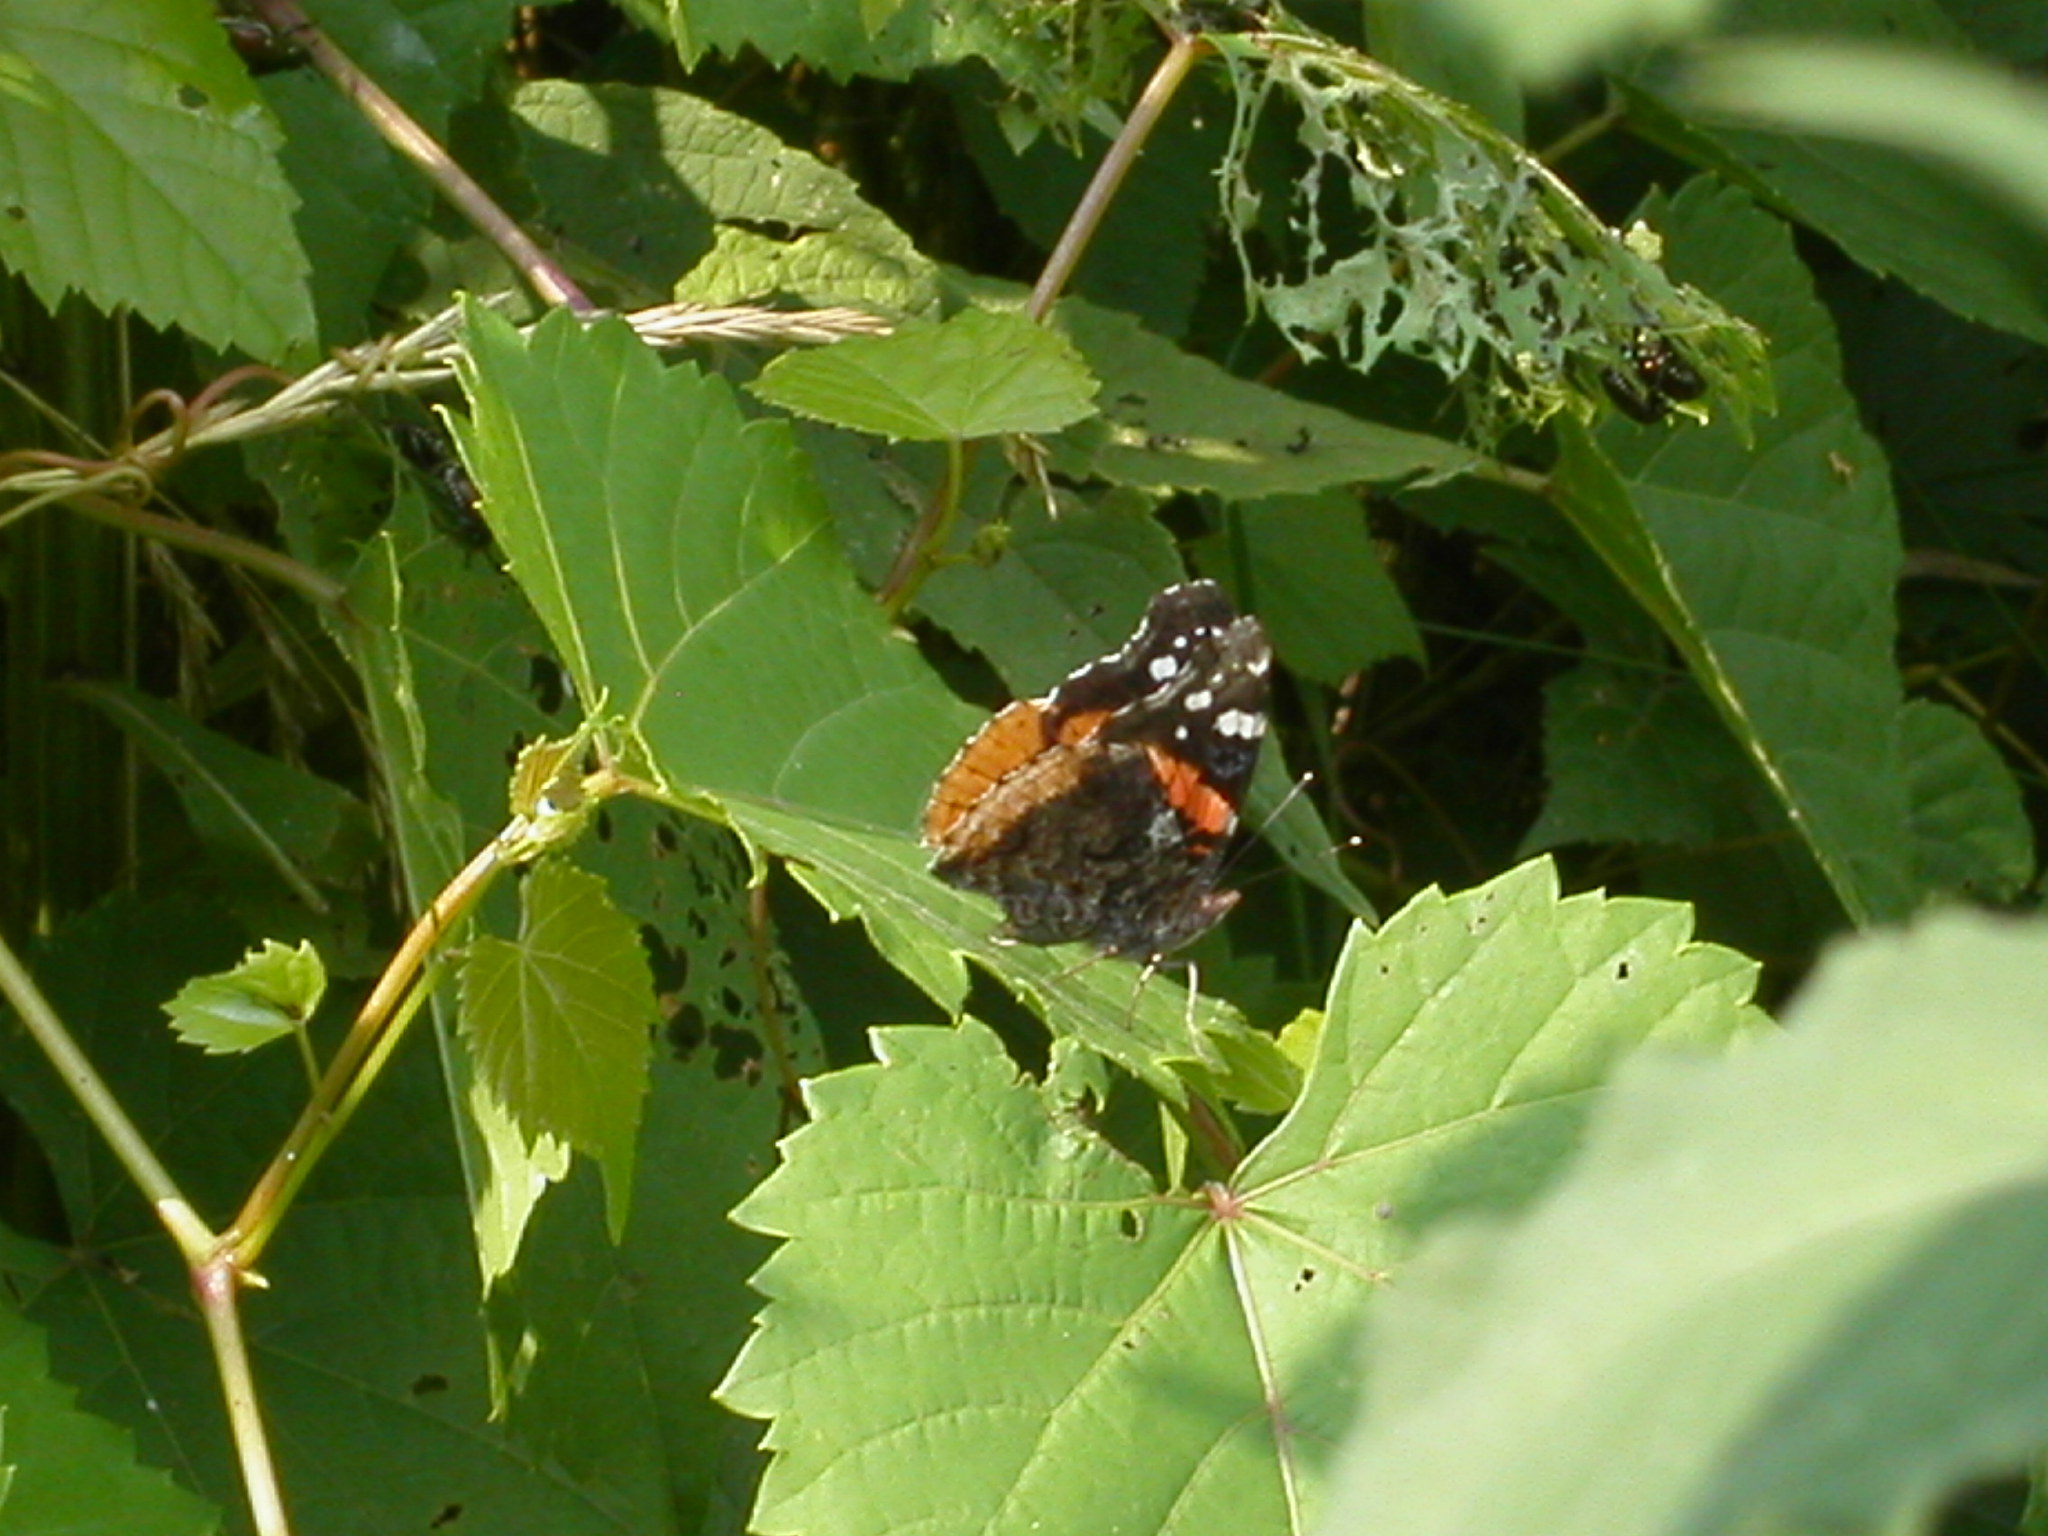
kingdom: Animalia
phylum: Arthropoda
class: Insecta
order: Lepidoptera
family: Nymphalidae
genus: Vanessa
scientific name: Vanessa atalanta
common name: Red admiral
